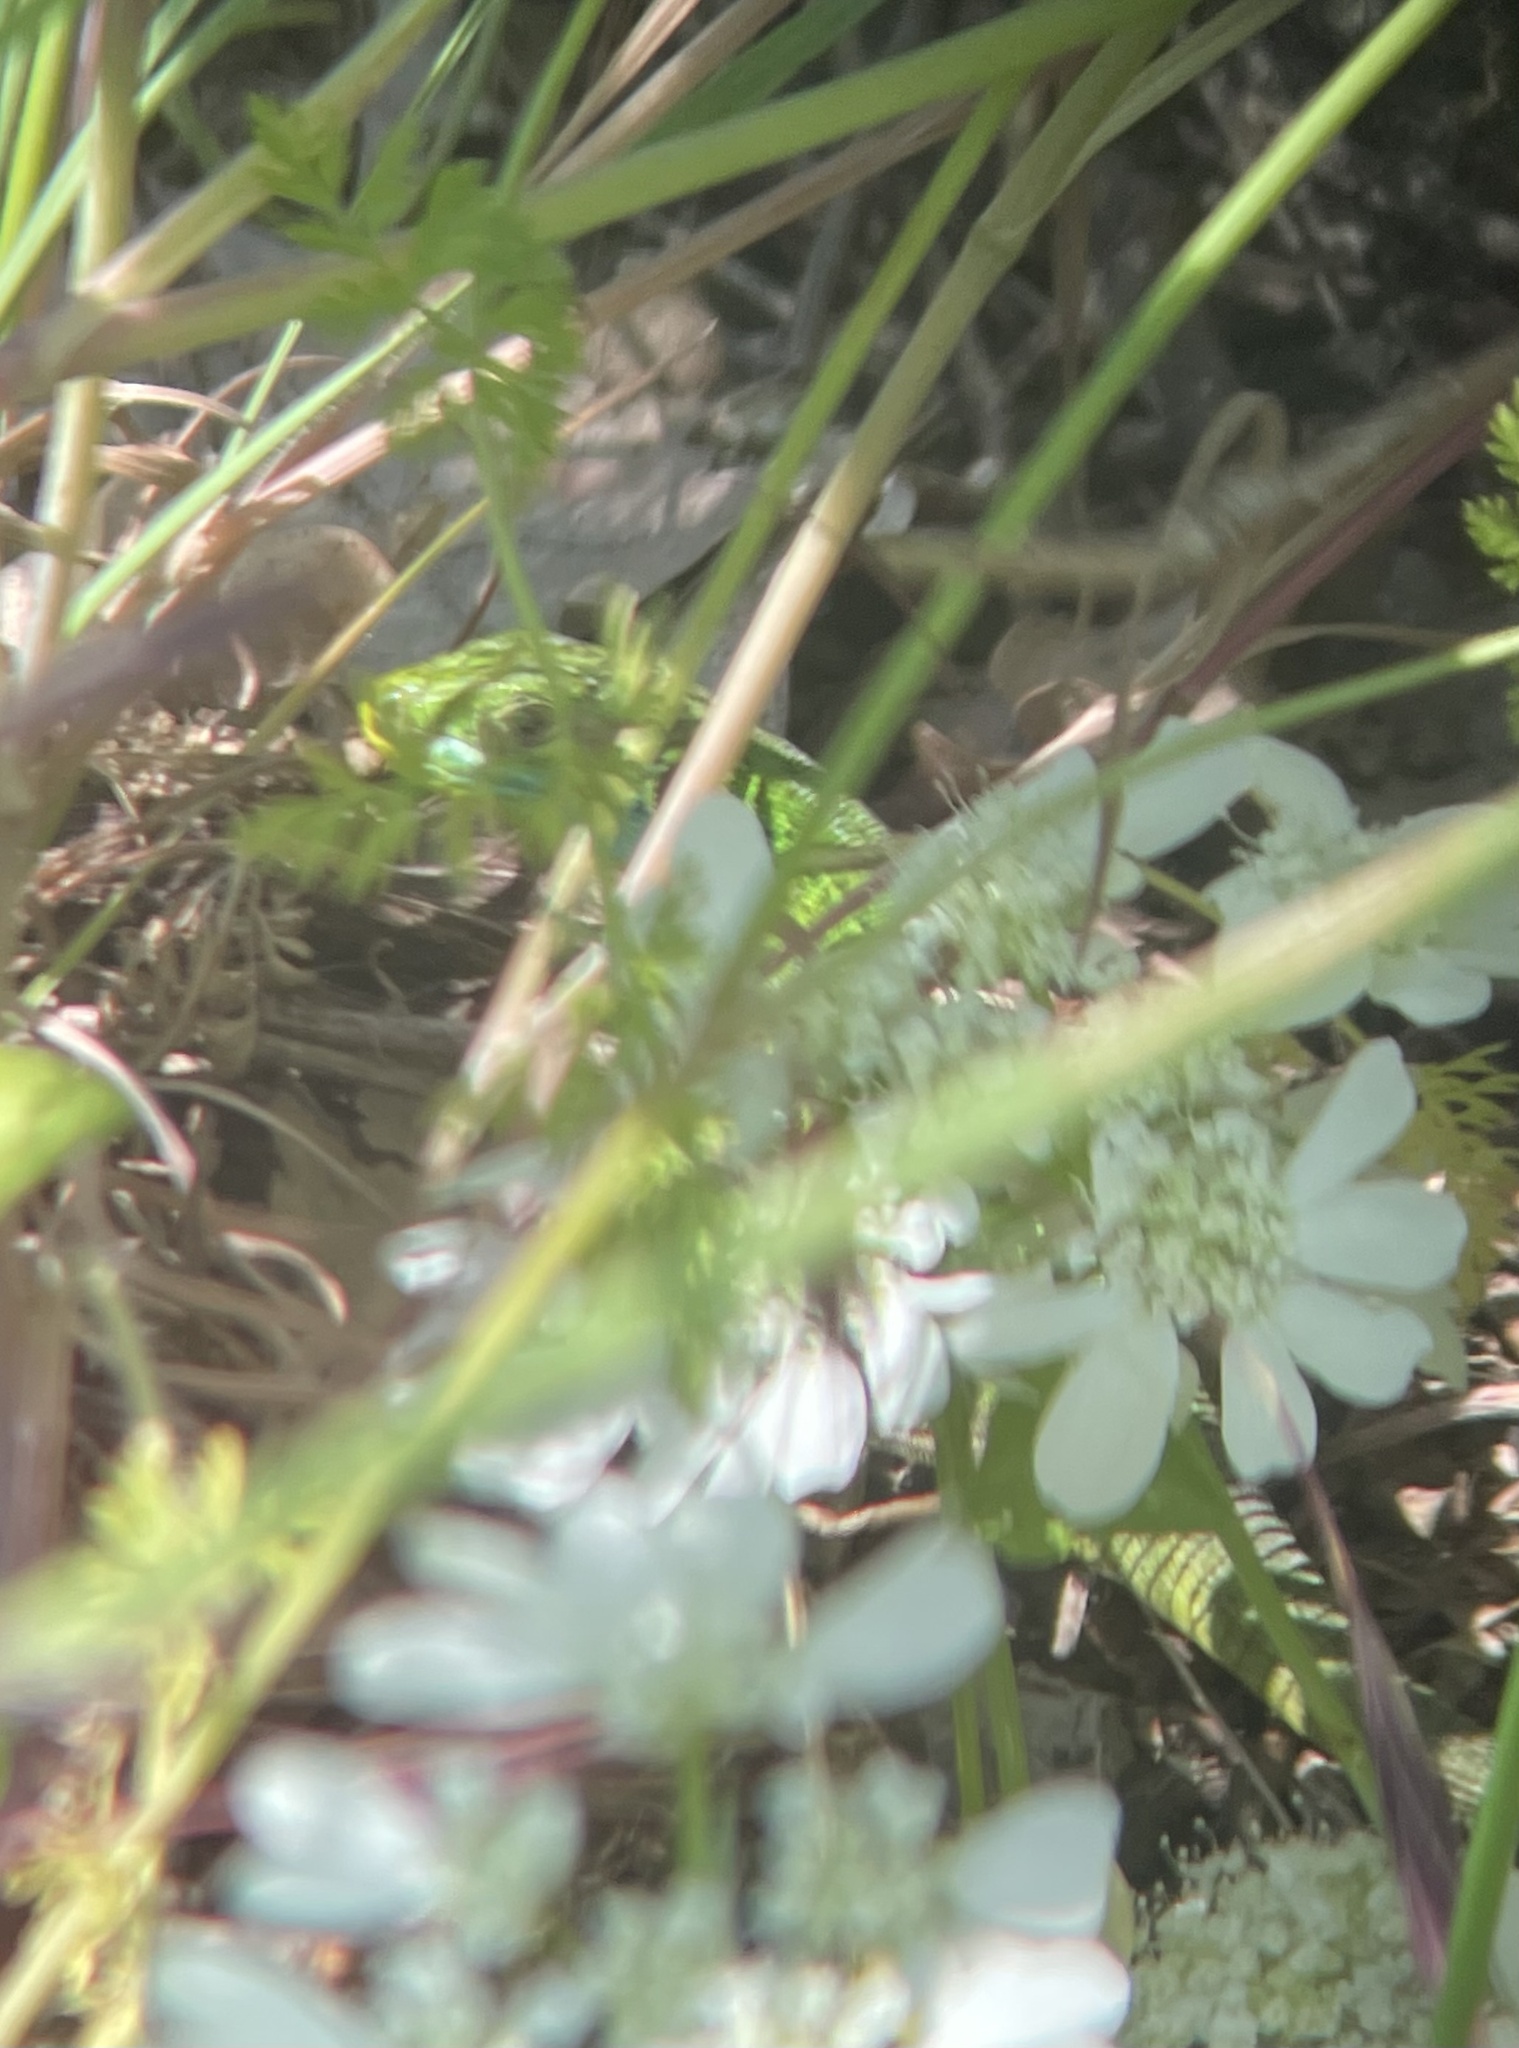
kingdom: Animalia
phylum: Chordata
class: Squamata
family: Lacertidae
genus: Lacerta
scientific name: Lacerta bilineata
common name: Western green lizard
